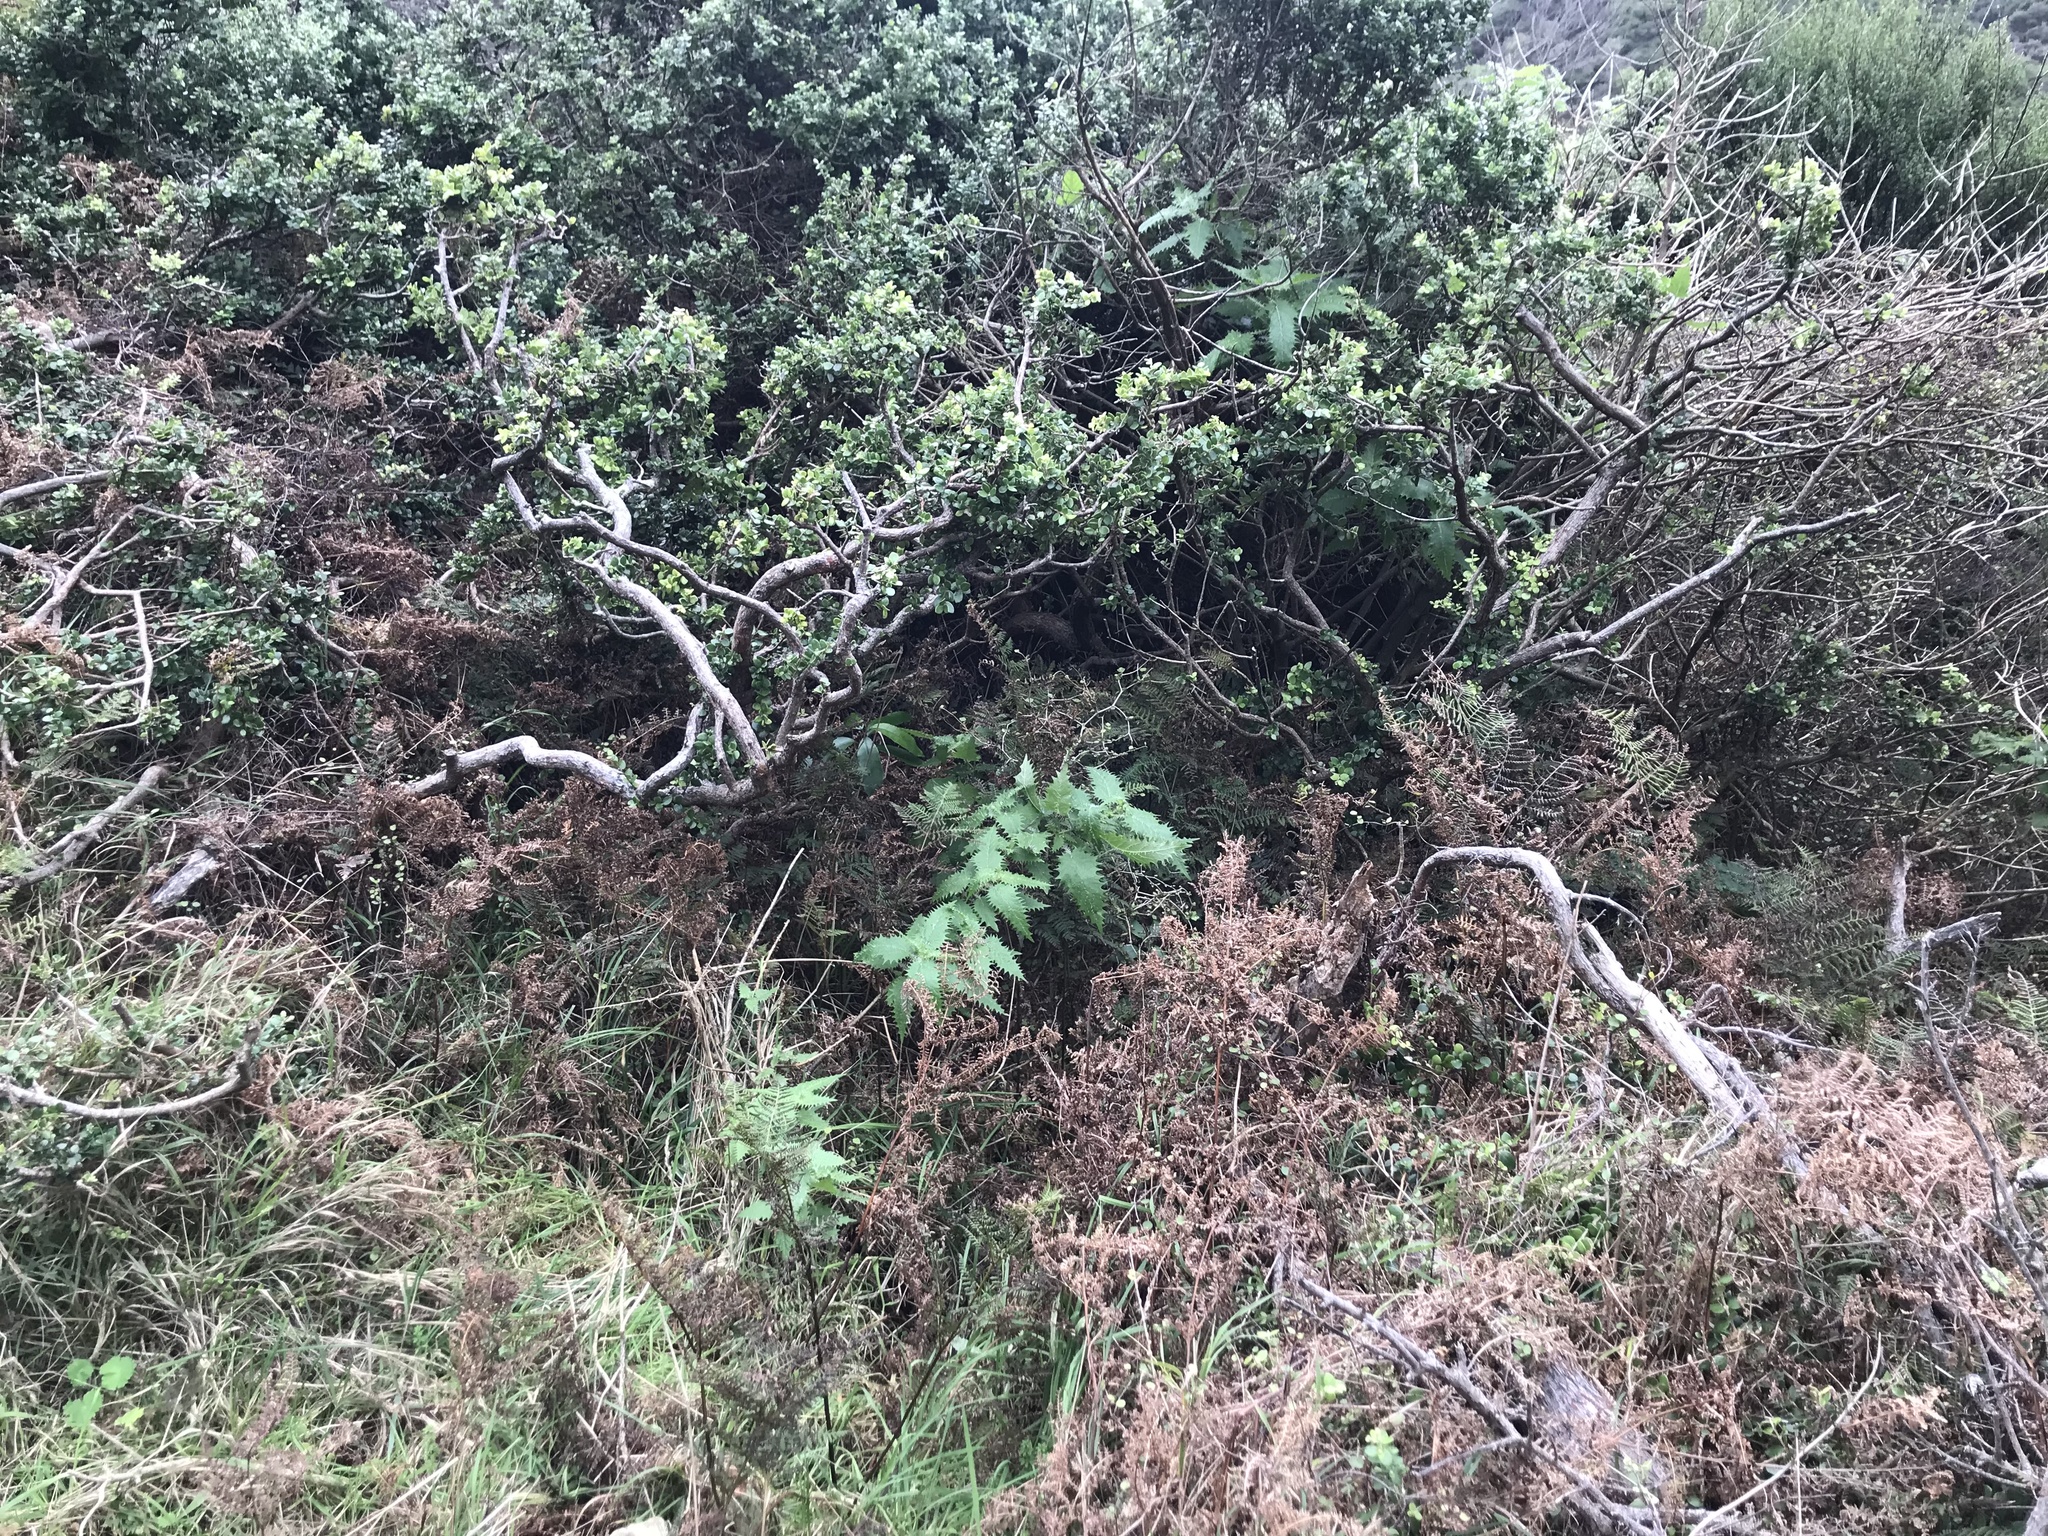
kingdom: Plantae
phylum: Tracheophyta
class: Magnoliopsida
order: Myrtales
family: Myrtaceae
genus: Metrosideros
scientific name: Metrosideros perforata
